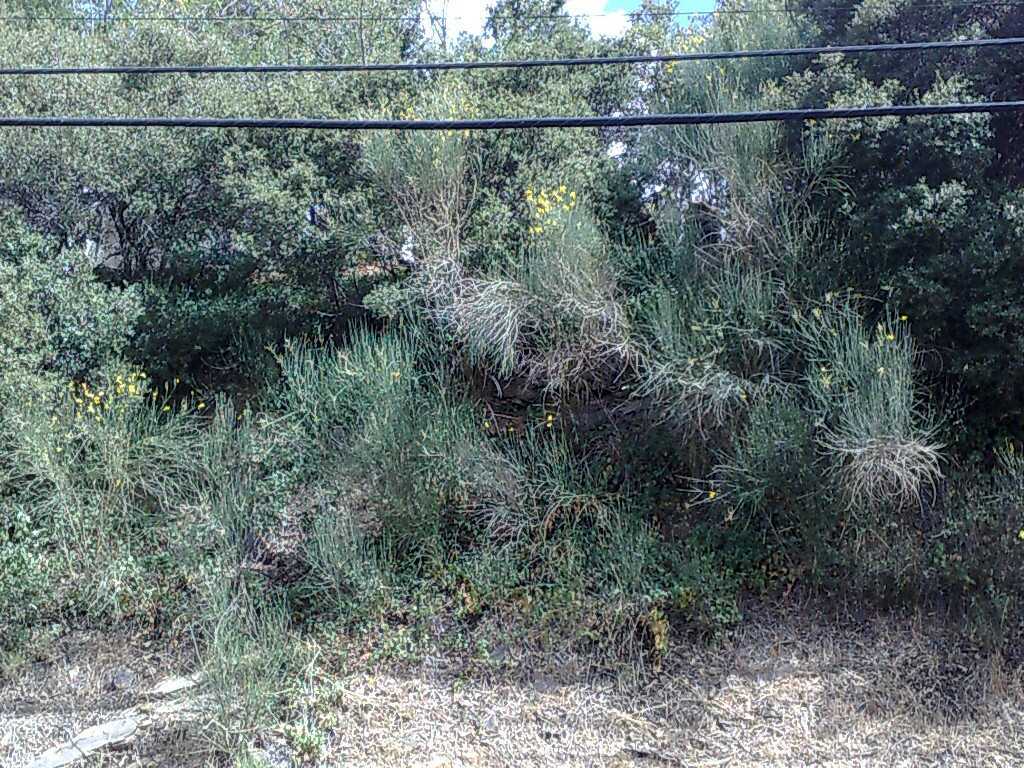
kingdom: Plantae
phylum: Tracheophyta
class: Magnoliopsida
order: Fabales
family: Fabaceae
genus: Spartium
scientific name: Spartium junceum
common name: Spanish broom
